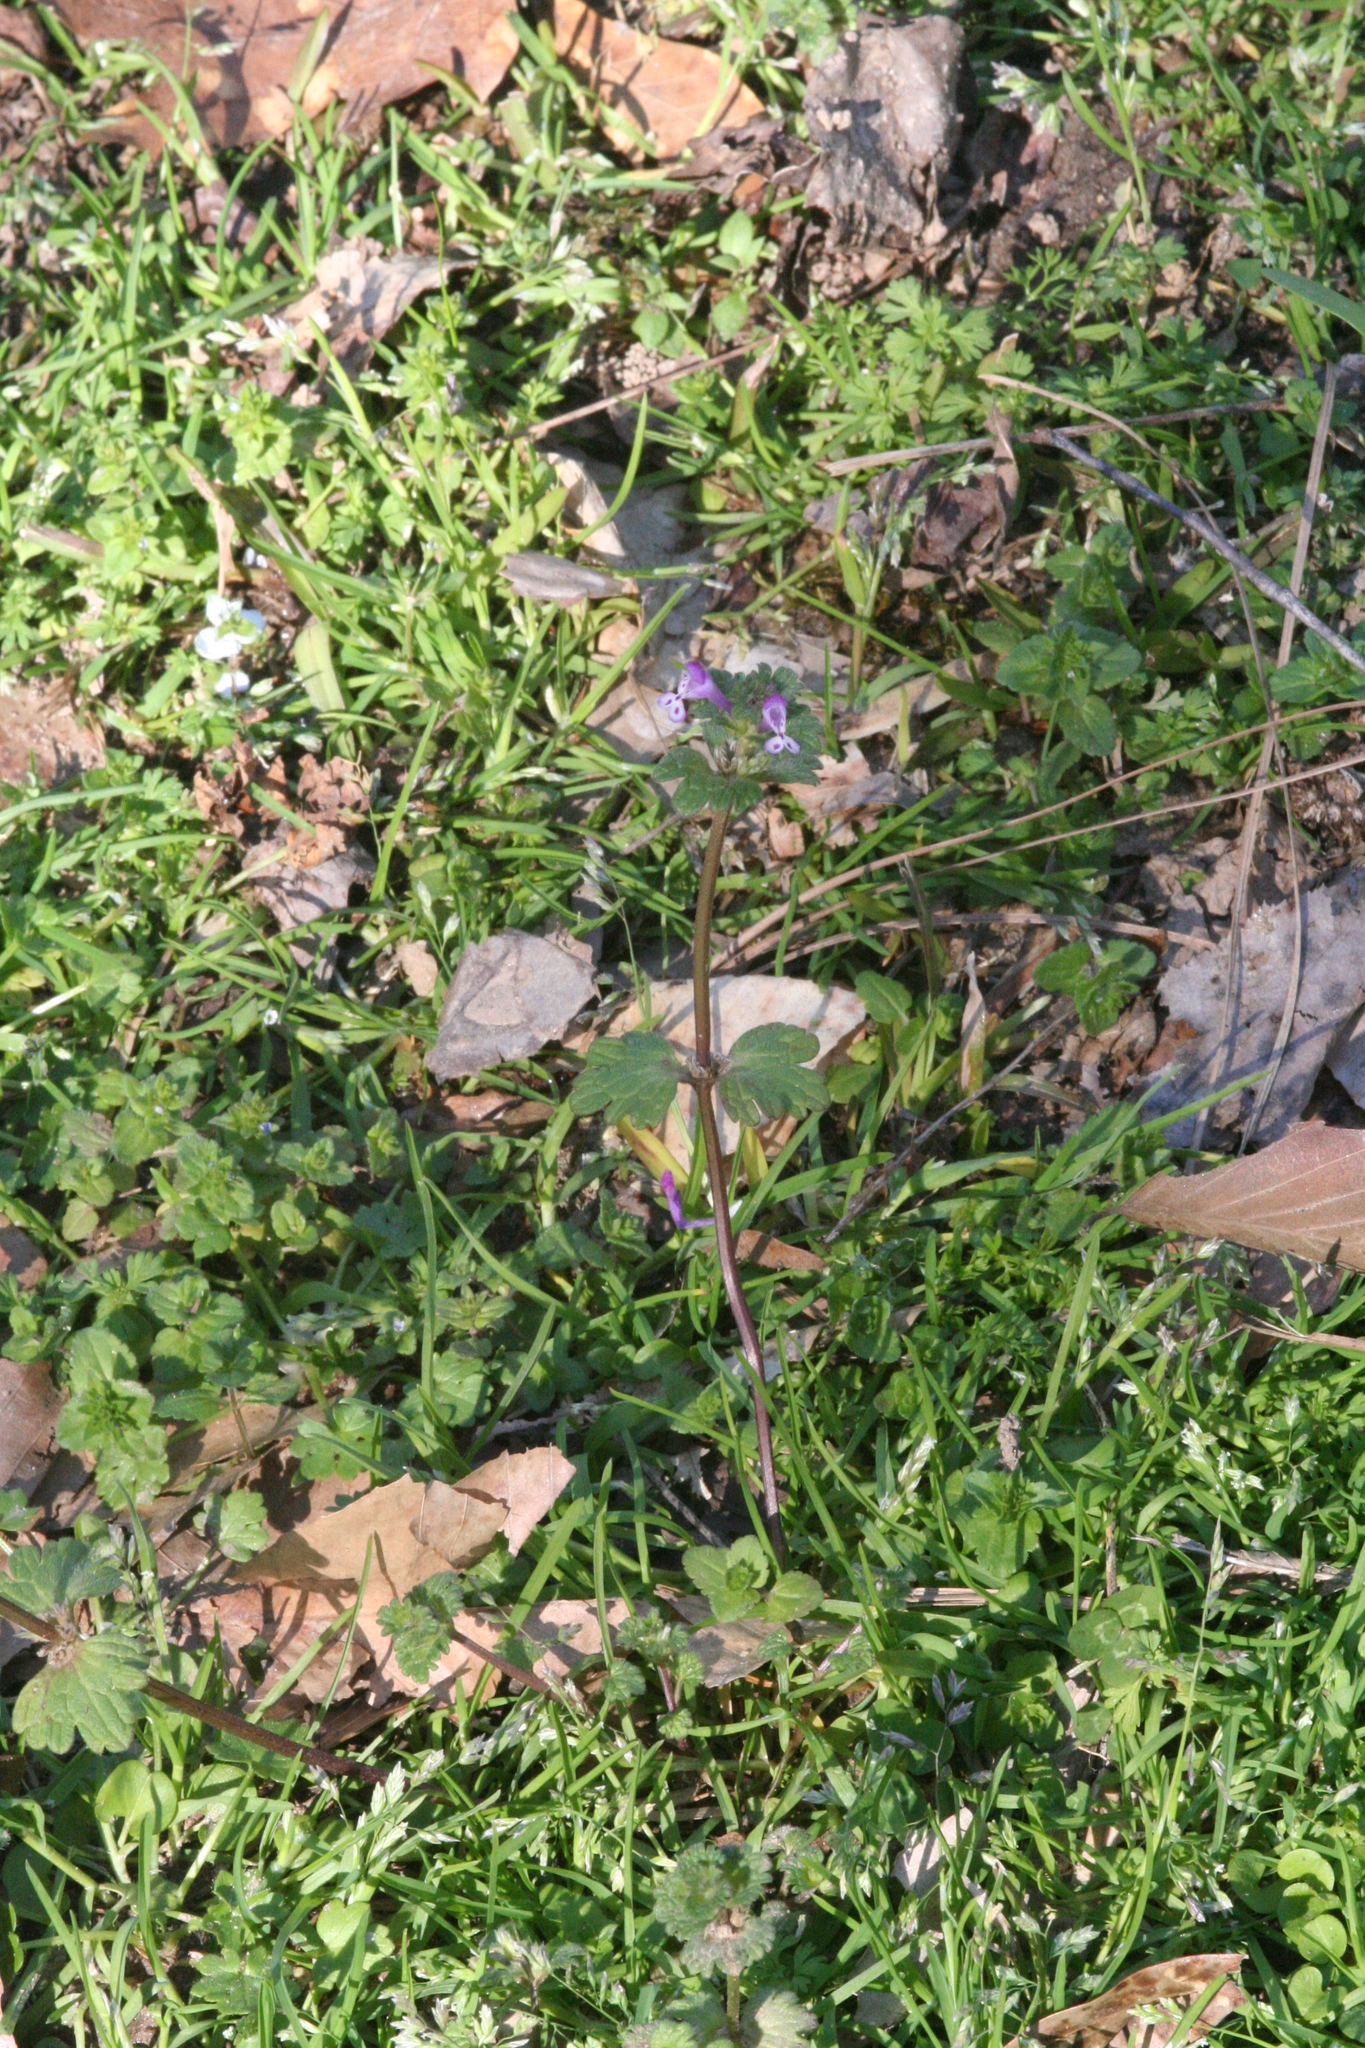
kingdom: Plantae
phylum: Tracheophyta
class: Magnoliopsida
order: Lamiales
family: Lamiaceae
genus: Lamium
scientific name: Lamium amplexicaule
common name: Henbit dead-nettle
